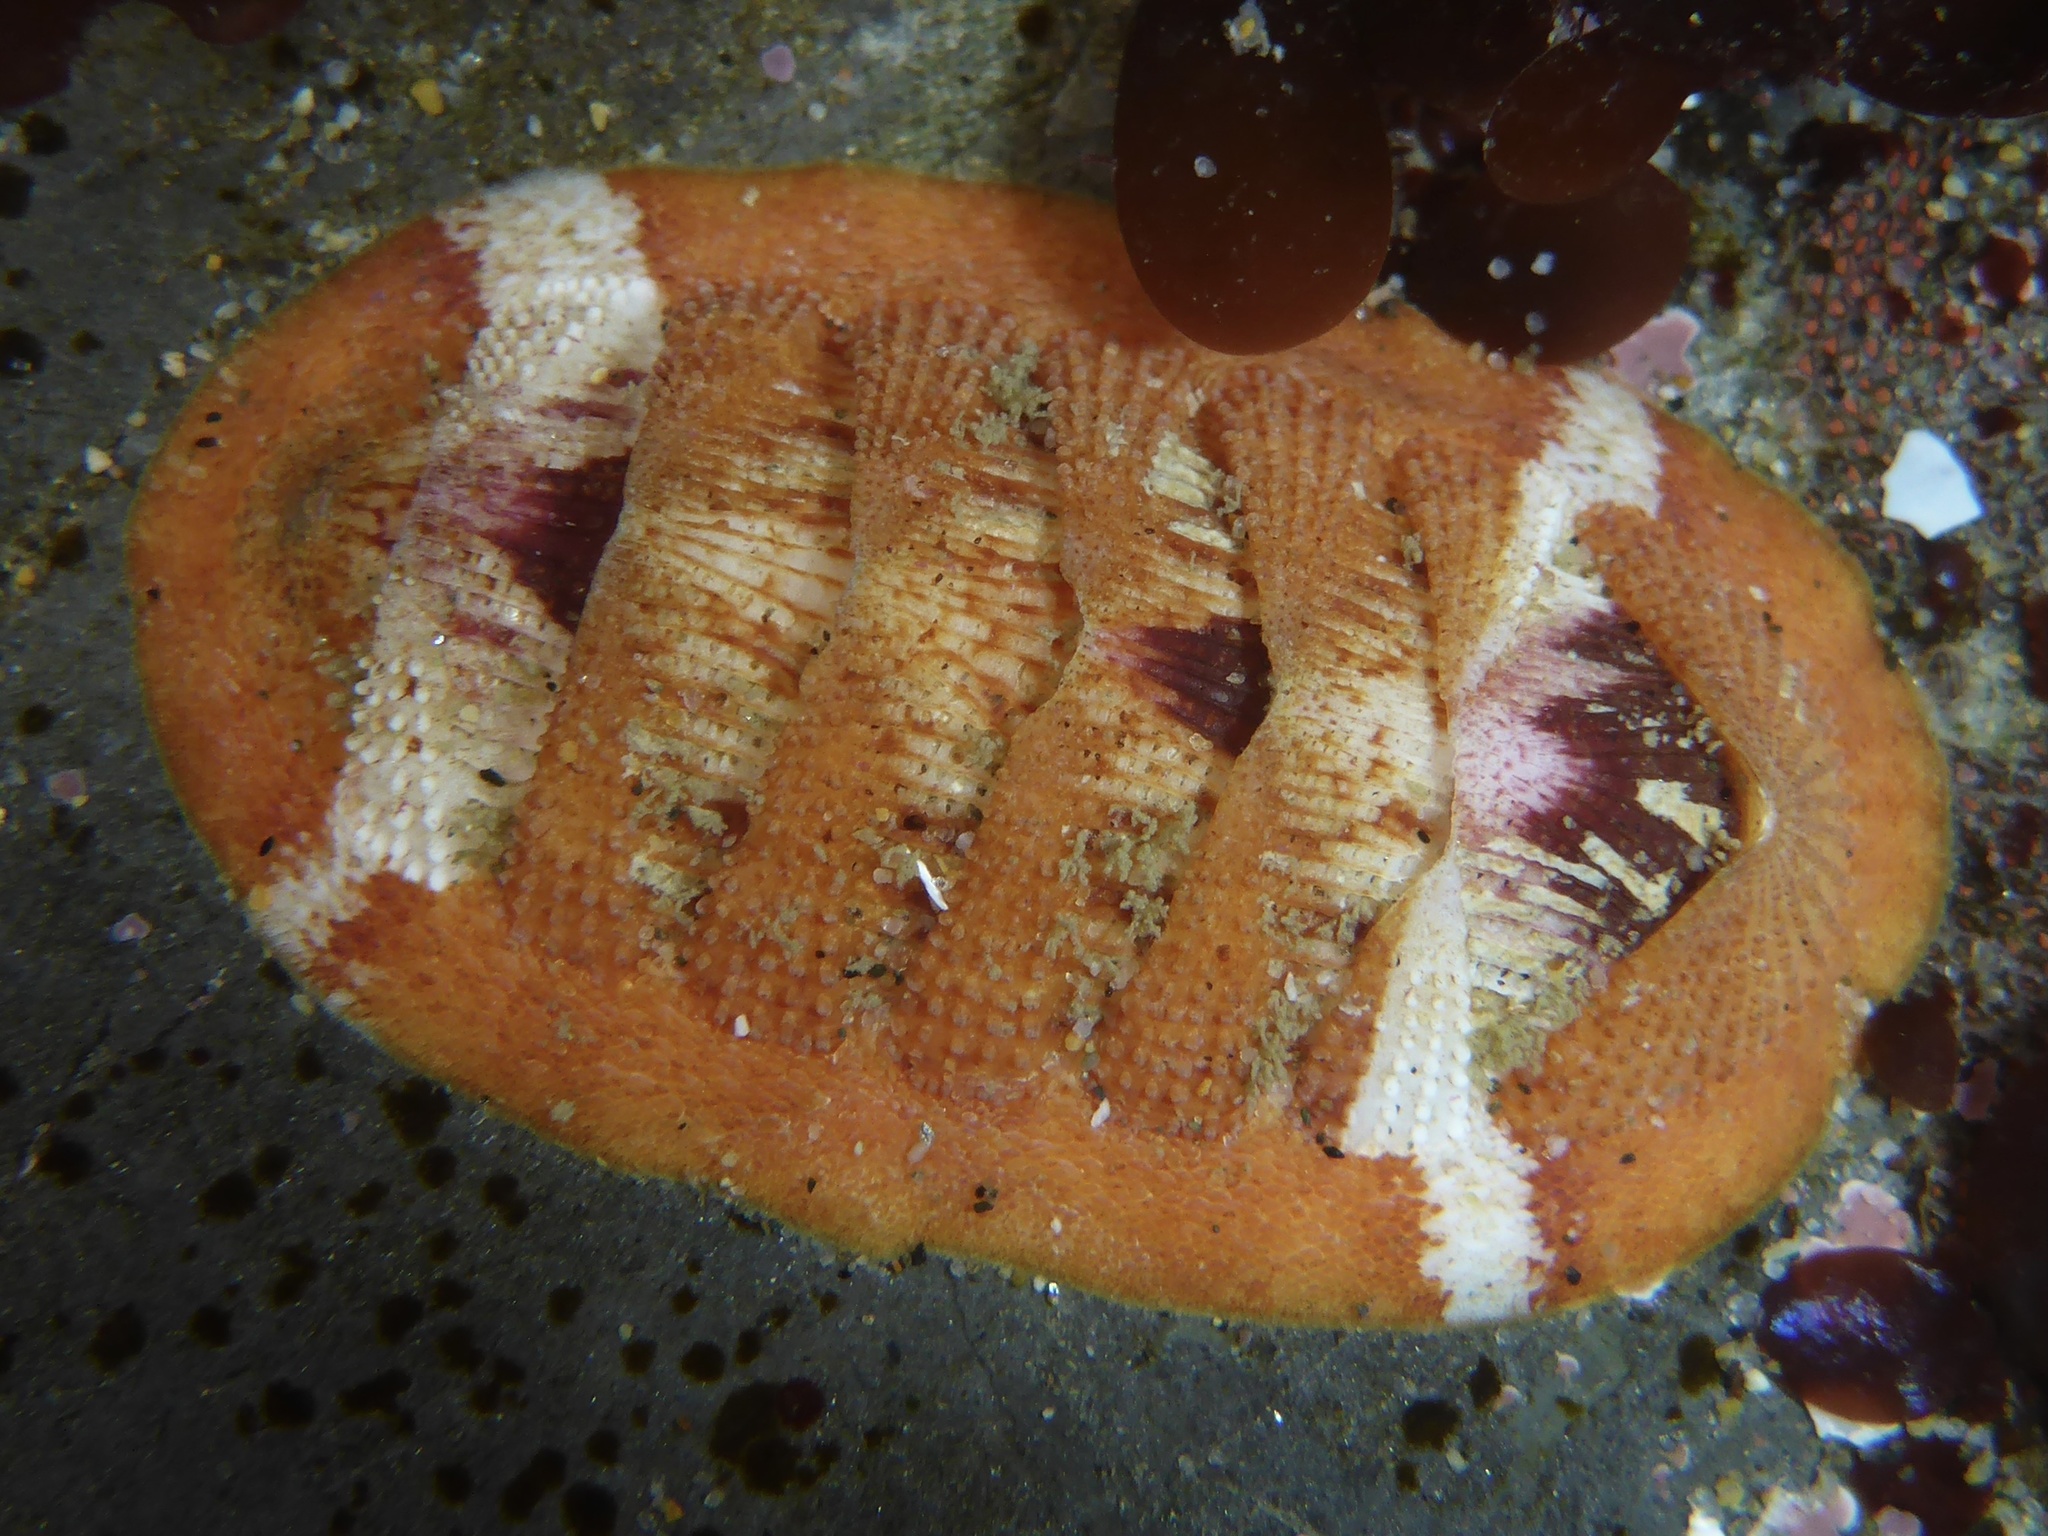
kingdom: Animalia
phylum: Mollusca
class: Polyplacophora
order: Chitonida
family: Ischnochitonidae
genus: Lepidozona
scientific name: Lepidozona mertensii
